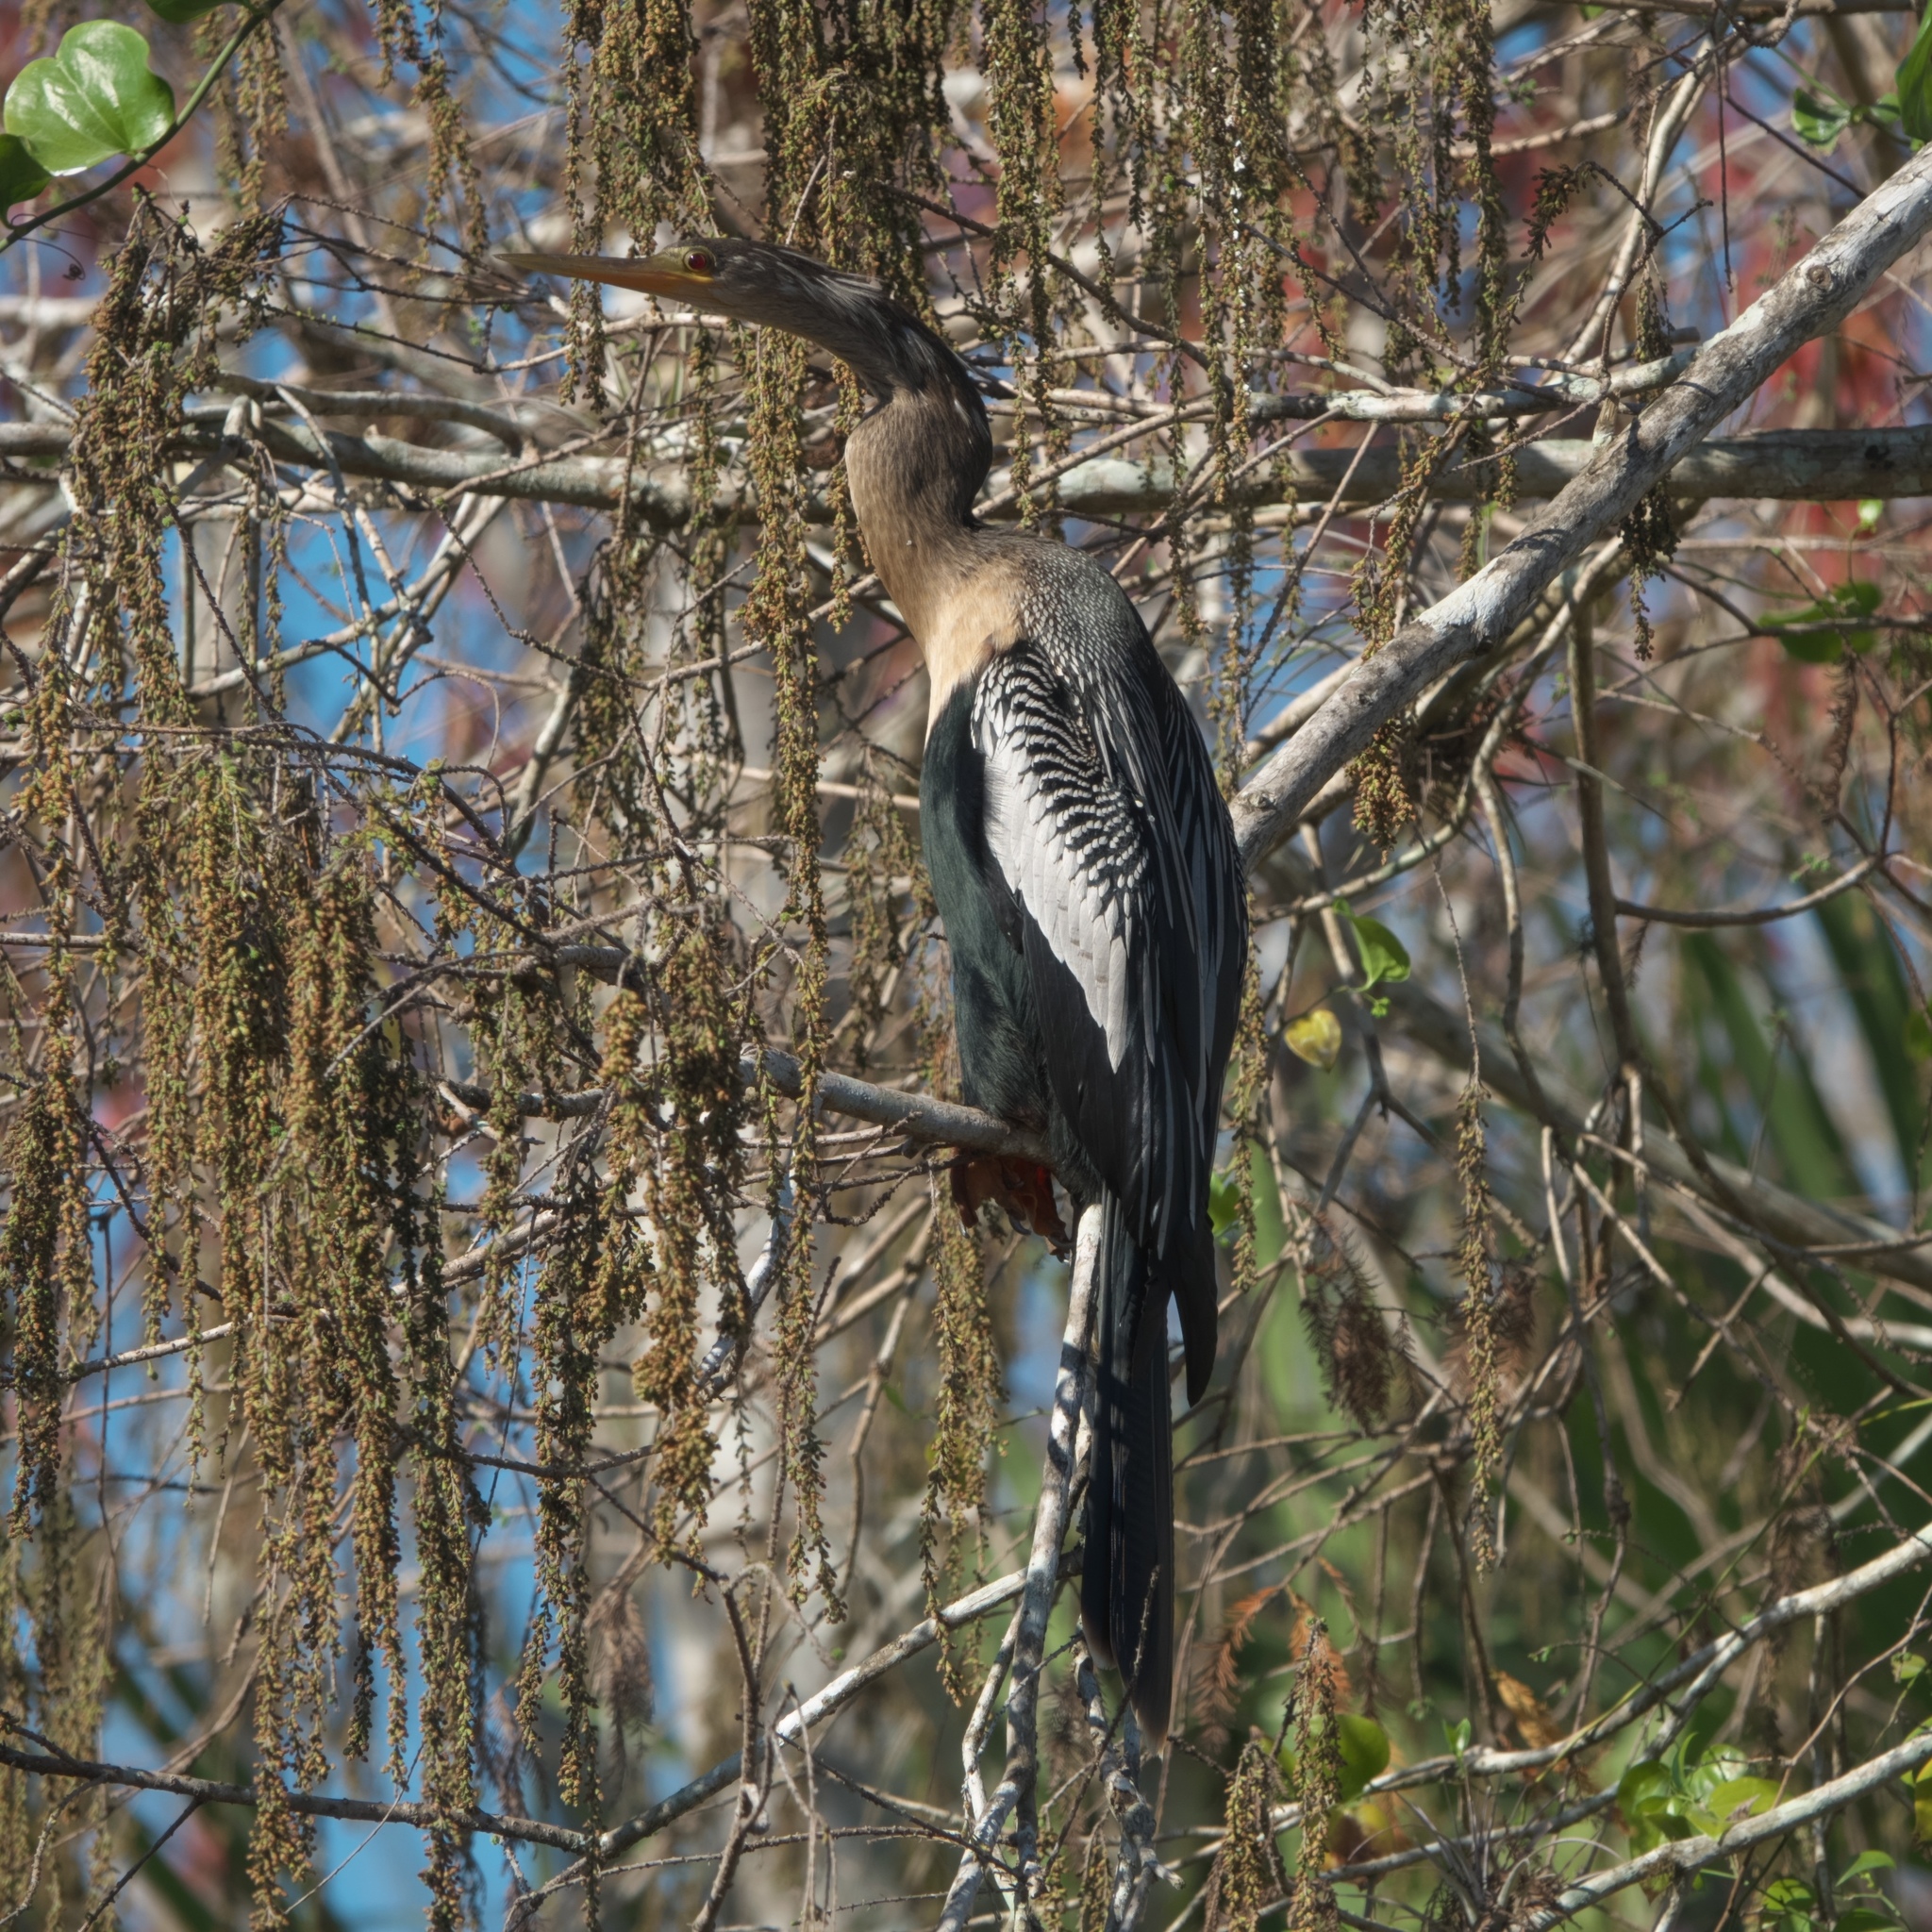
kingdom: Animalia
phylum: Chordata
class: Aves
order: Suliformes
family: Anhingidae
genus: Anhinga
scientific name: Anhinga anhinga
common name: Anhinga
